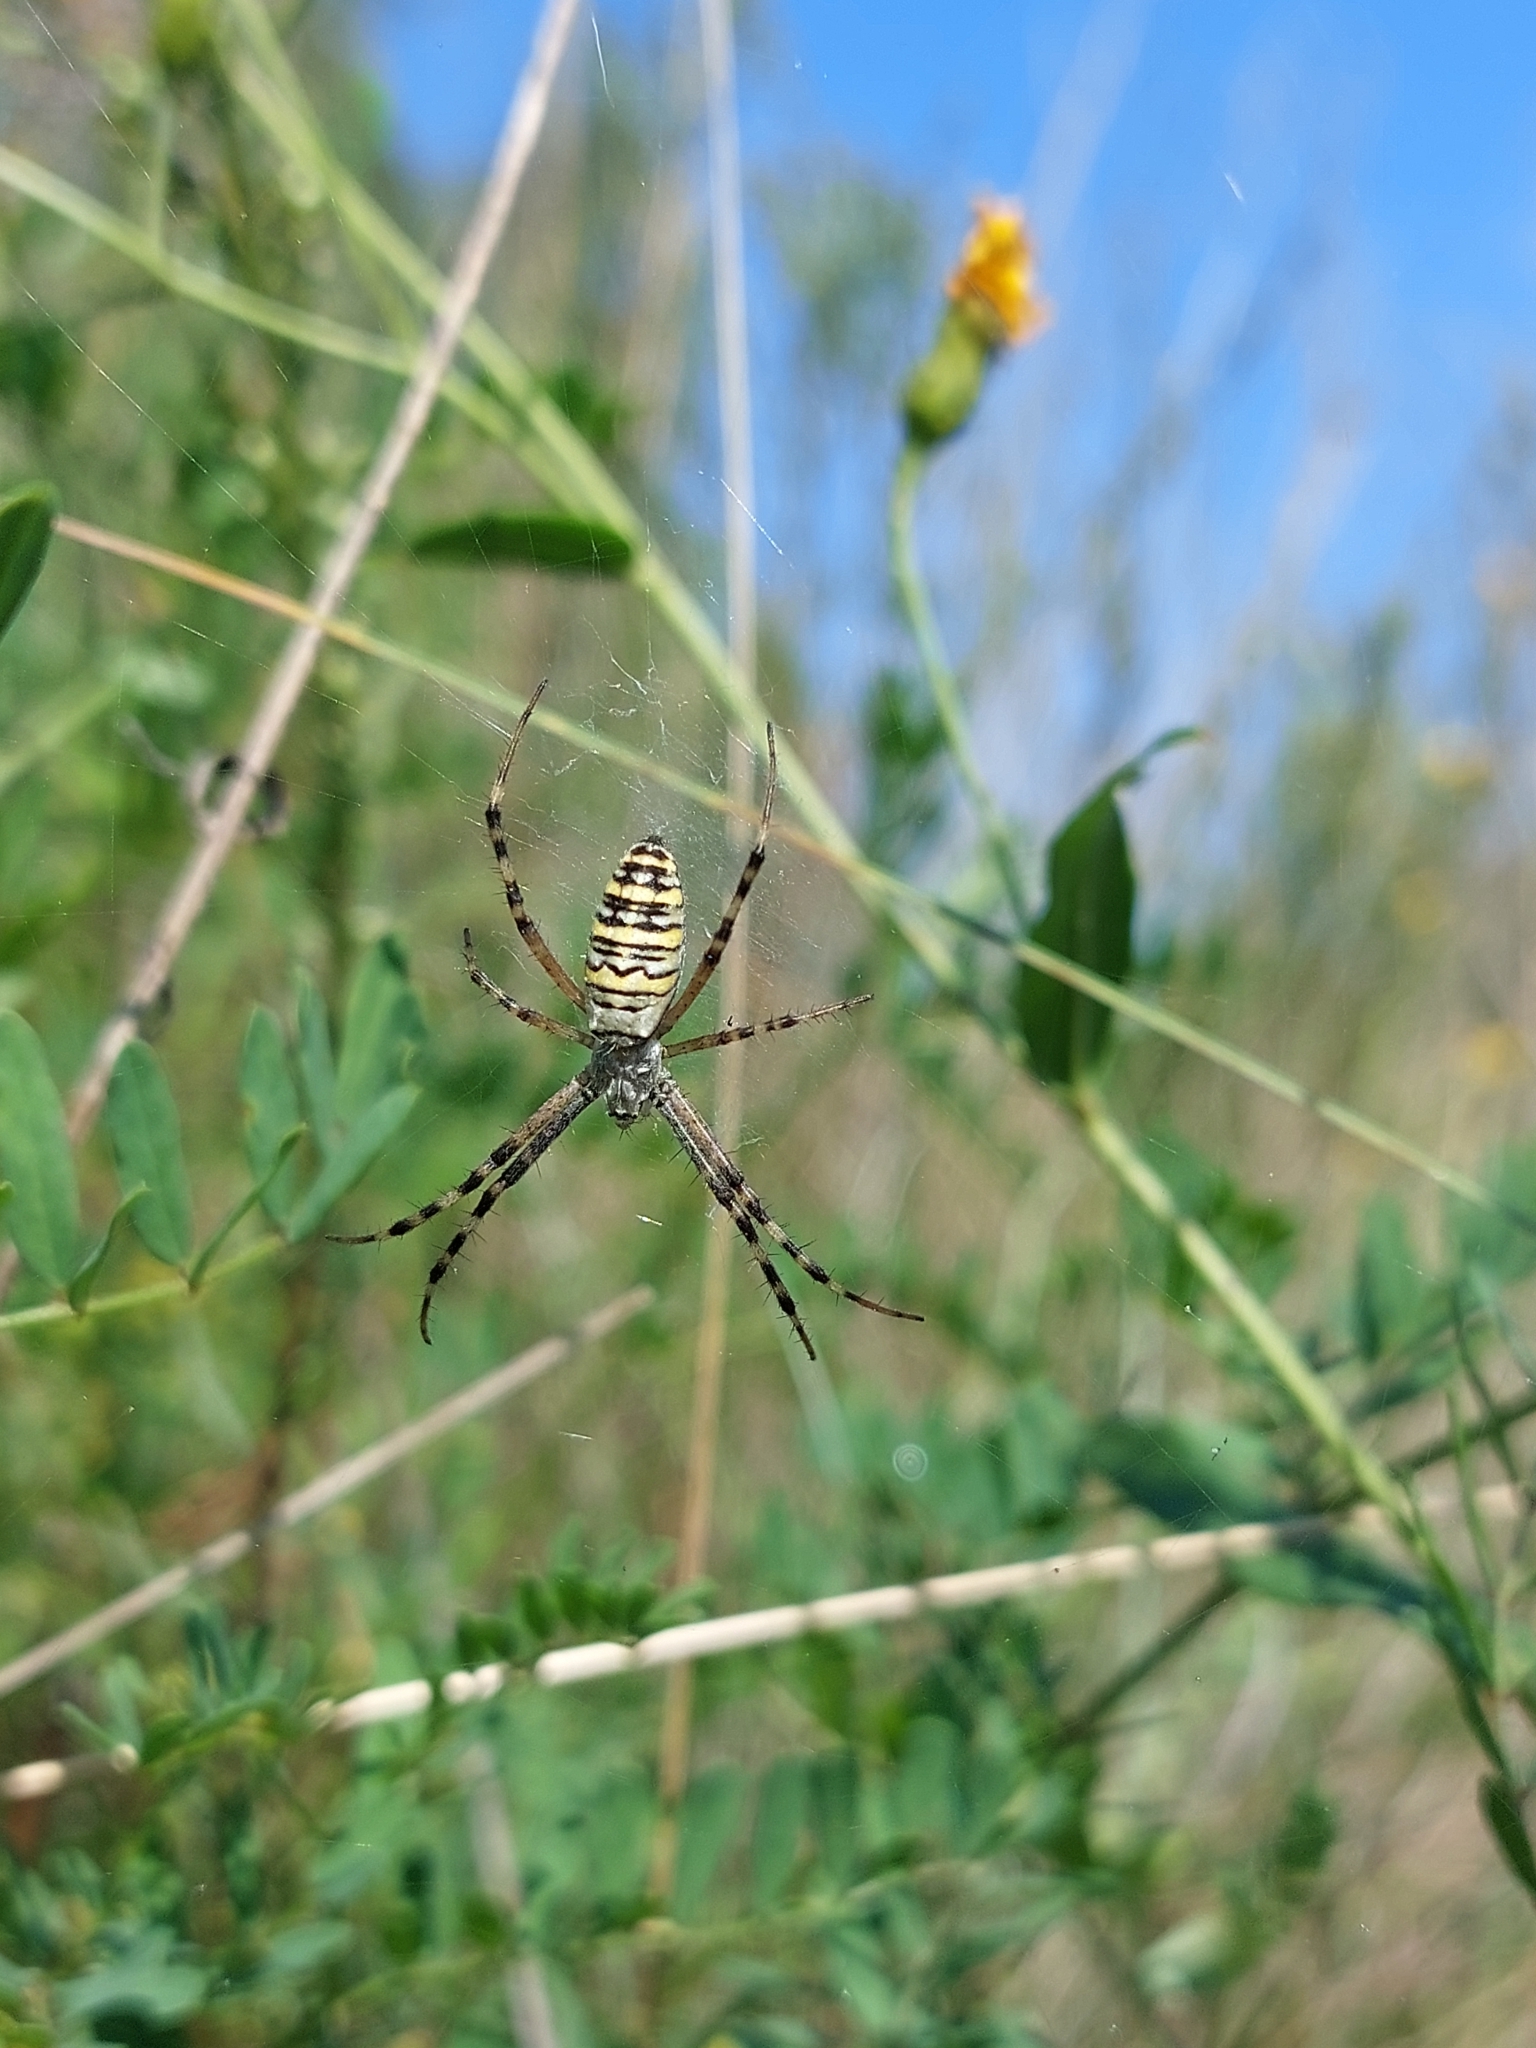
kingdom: Animalia
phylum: Arthropoda
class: Arachnida
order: Araneae
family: Araneidae
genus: Argiope
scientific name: Argiope bruennichi
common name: Wasp spider
